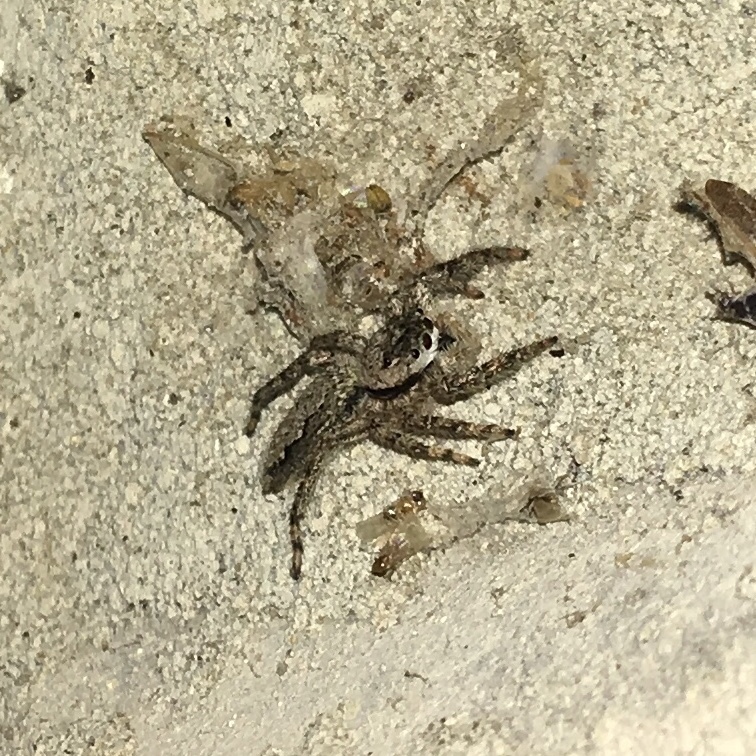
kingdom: Animalia
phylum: Arthropoda
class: Arachnida
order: Araneae
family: Salticidae
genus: Platycryptus
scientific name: Platycryptus undatus
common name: Tan jumping spider
